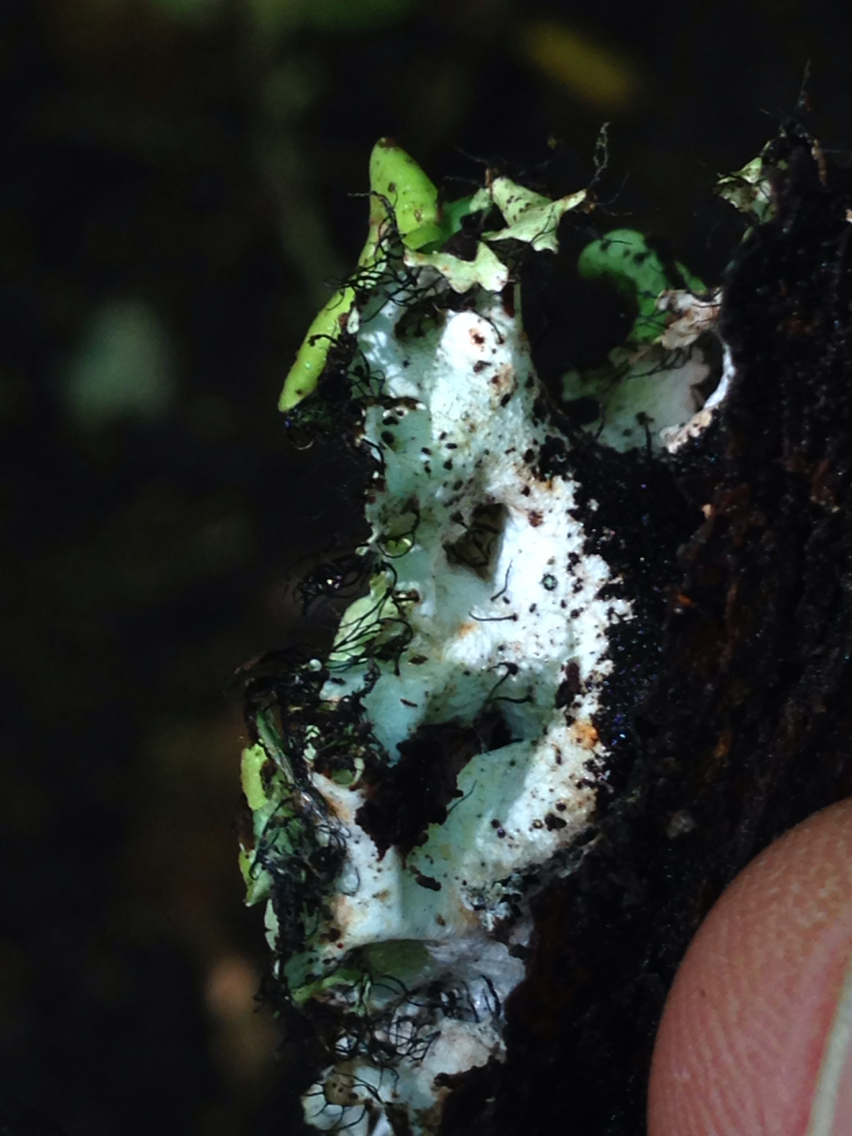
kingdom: Fungi
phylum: Ascomycota
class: Lecanoromycetes
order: Lecanorales
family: Parmeliaceae
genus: Parmotrema
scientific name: Parmotrema perforatum
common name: Perforated ruffle lichen
